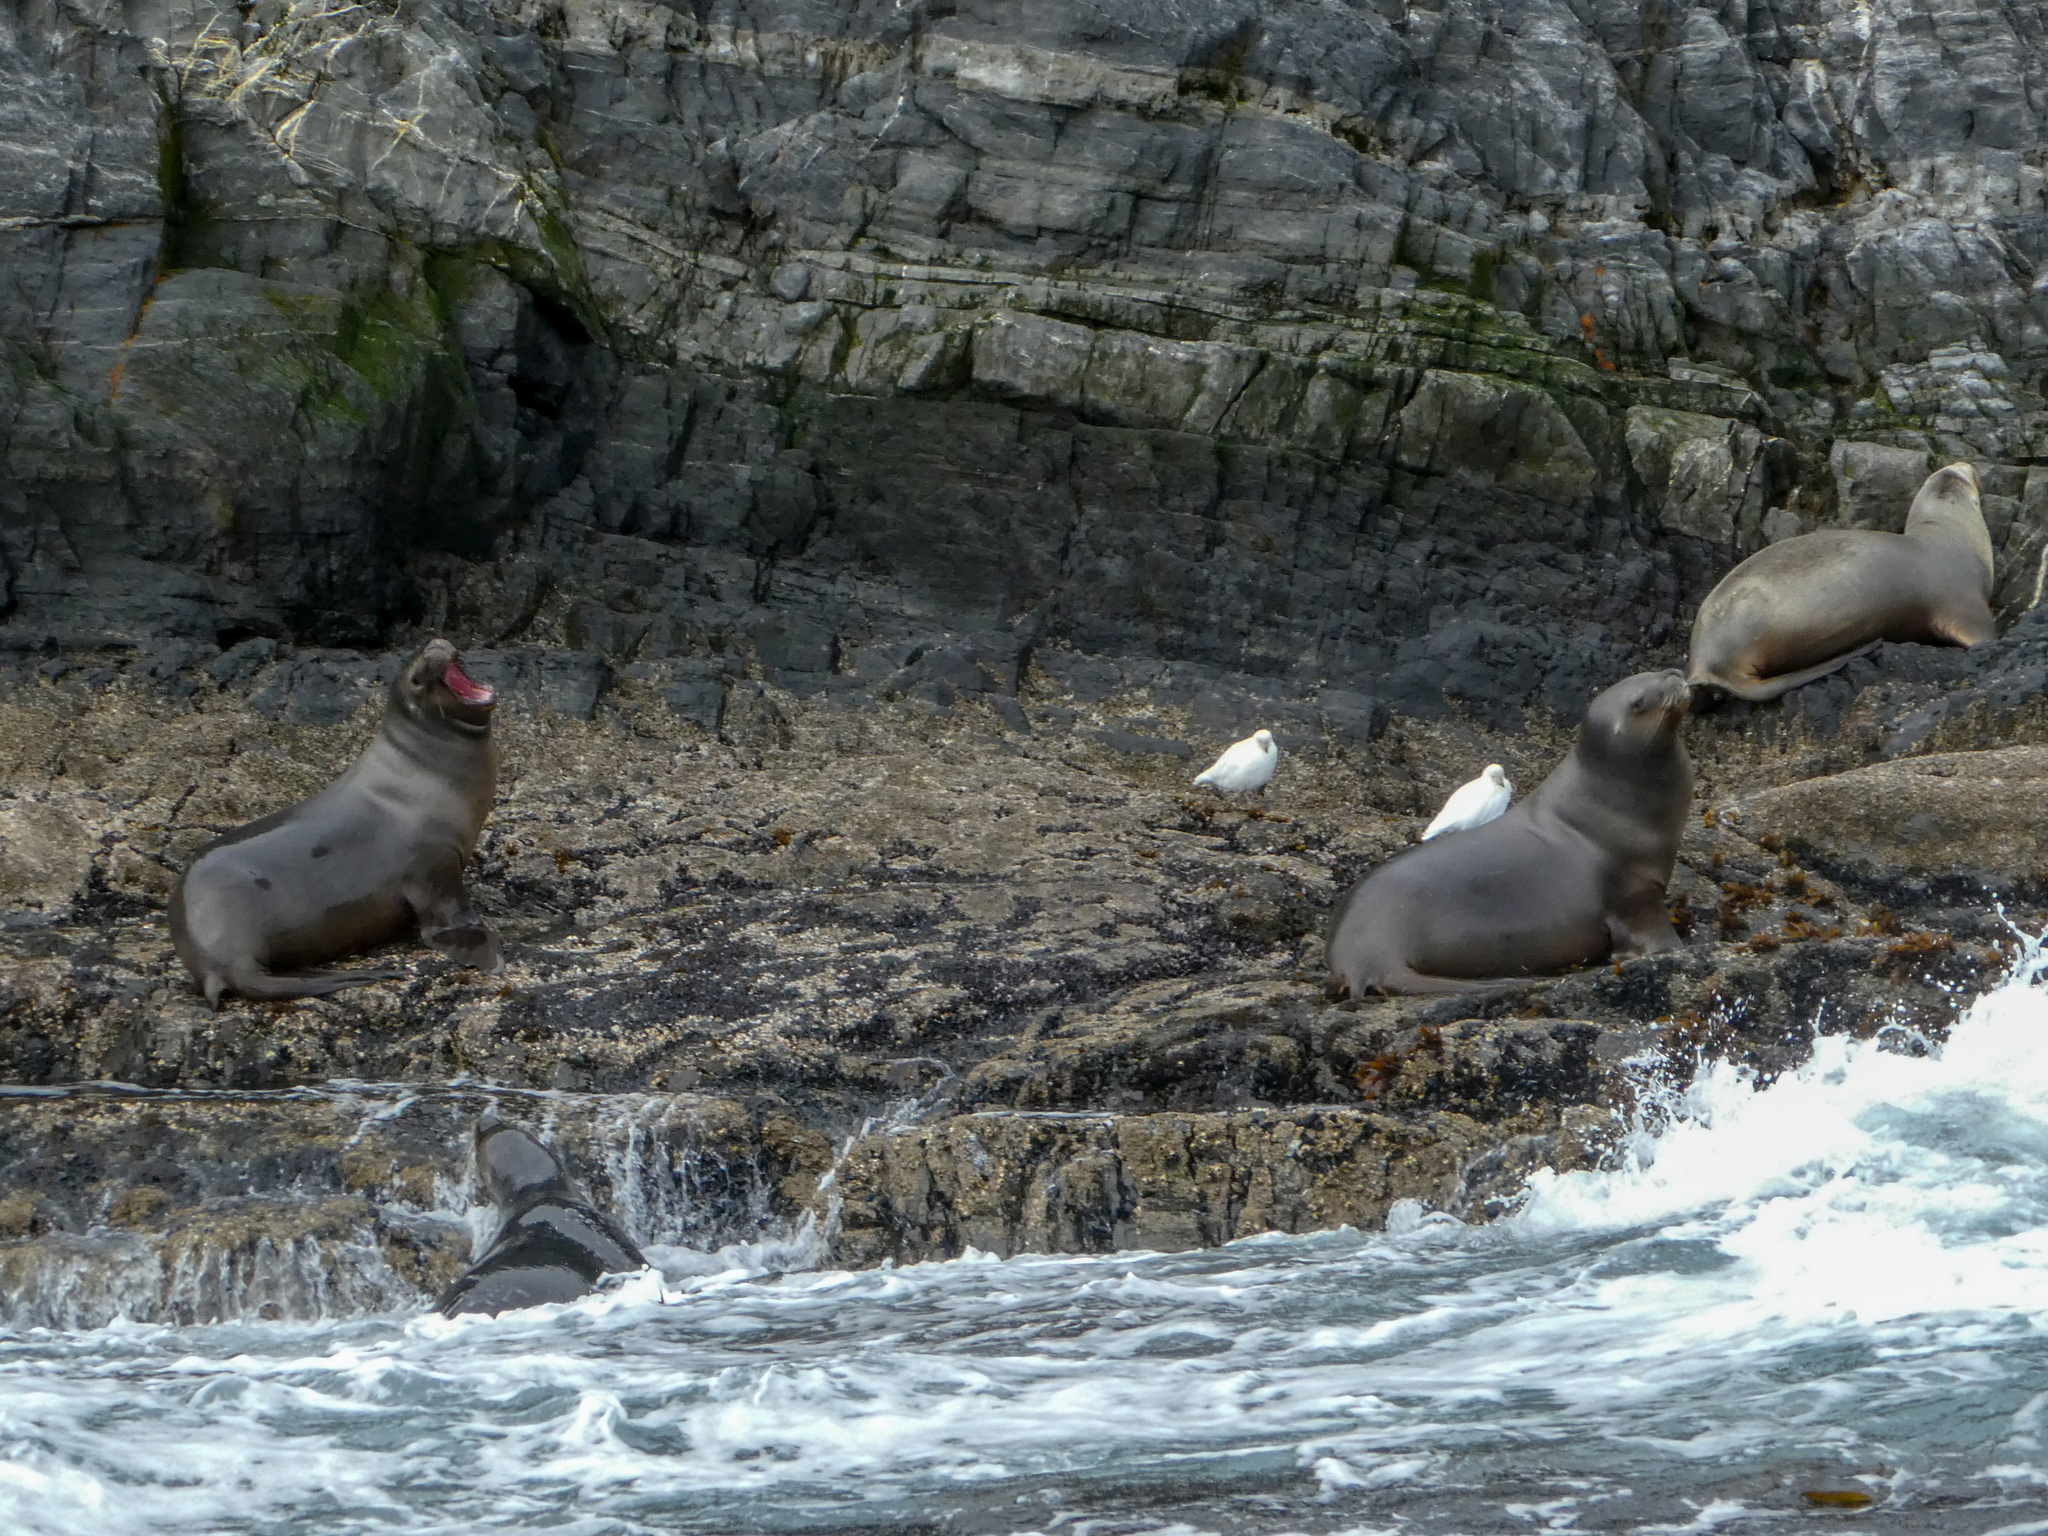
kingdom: Animalia
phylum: Chordata
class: Mammalia
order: Carnivora
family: Otariidae
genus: Otaria
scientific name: Otaria byronia
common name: South american sea lion
